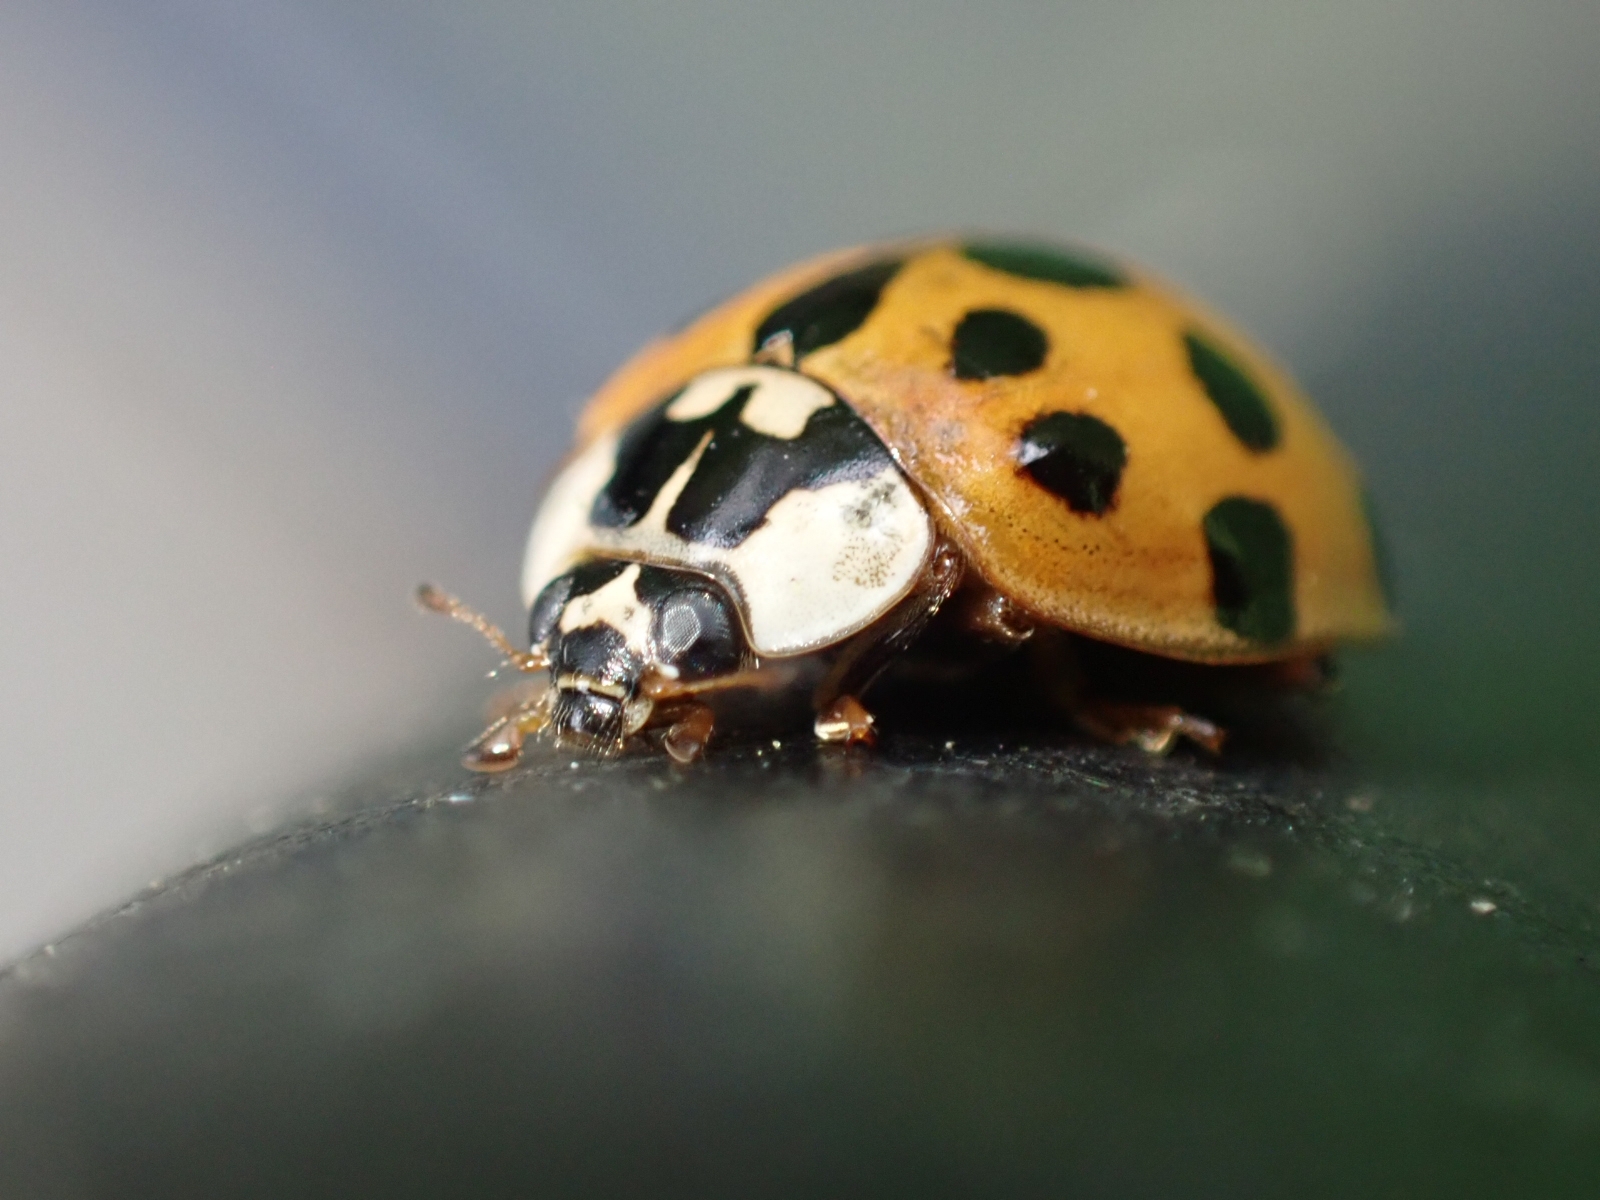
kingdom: Animalia
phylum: Arthropoda
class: Insecta
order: Coleoptera
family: Coccinellidae
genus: Harmonia
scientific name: Harmonia axyridis
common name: Harlequin ladybird
